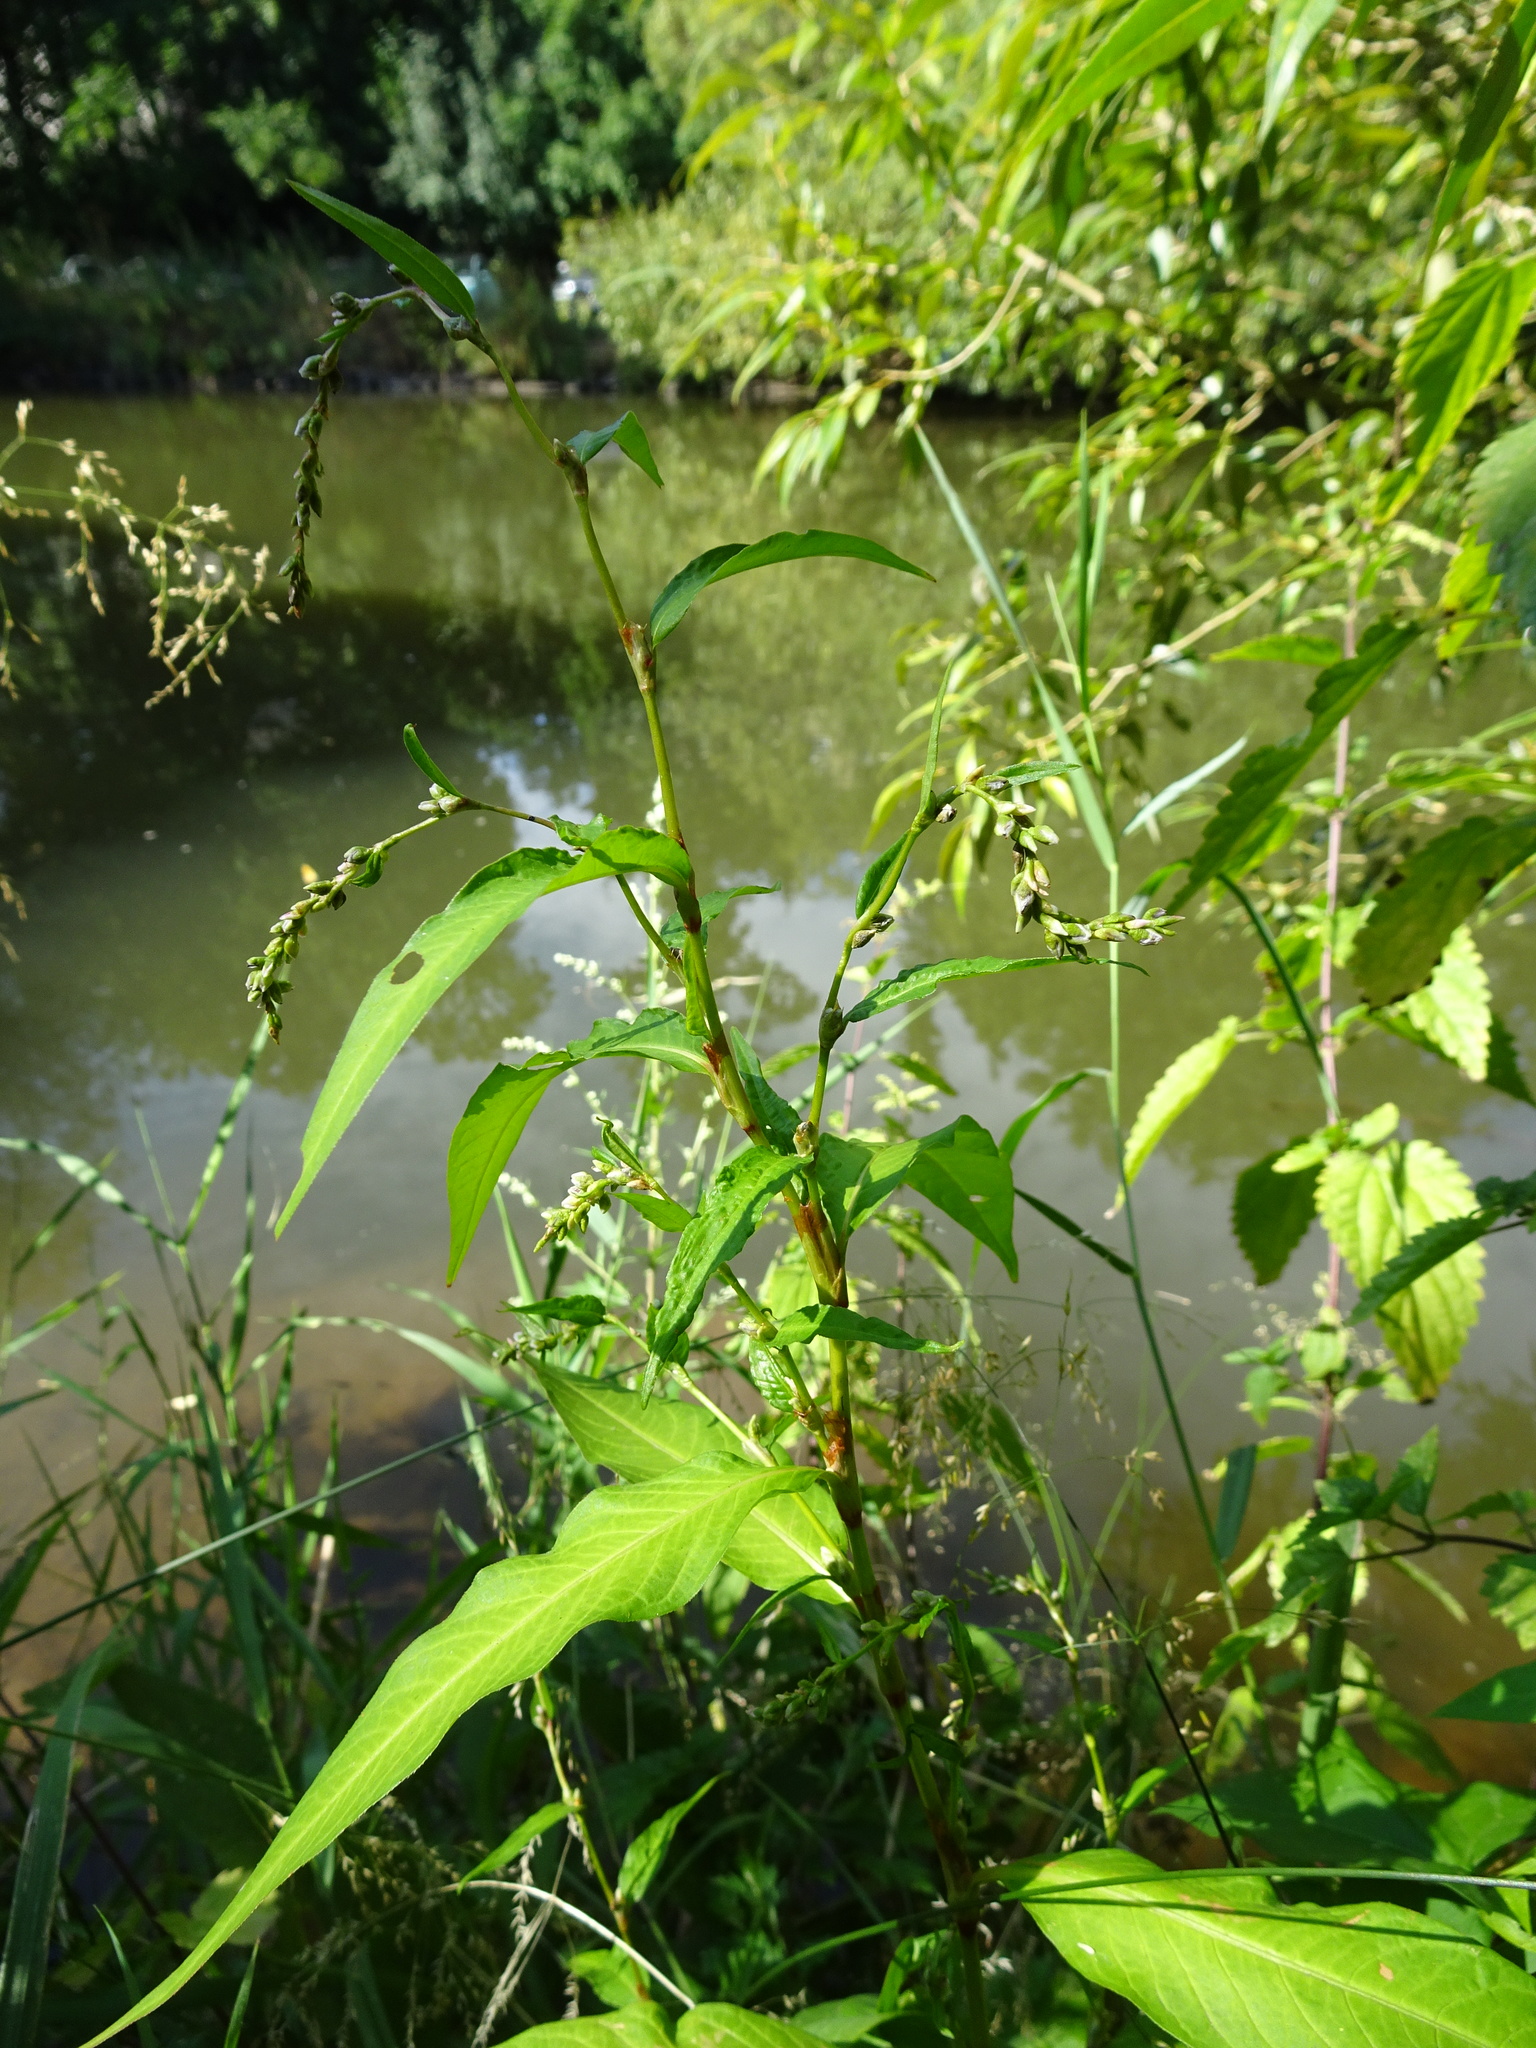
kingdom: Plantae
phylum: Tracheophyta
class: Magnoliopsida
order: Caryophyllales
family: Polygonaceae
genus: Persicaria
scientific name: Persicaria hydropiper
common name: Water-pepper
